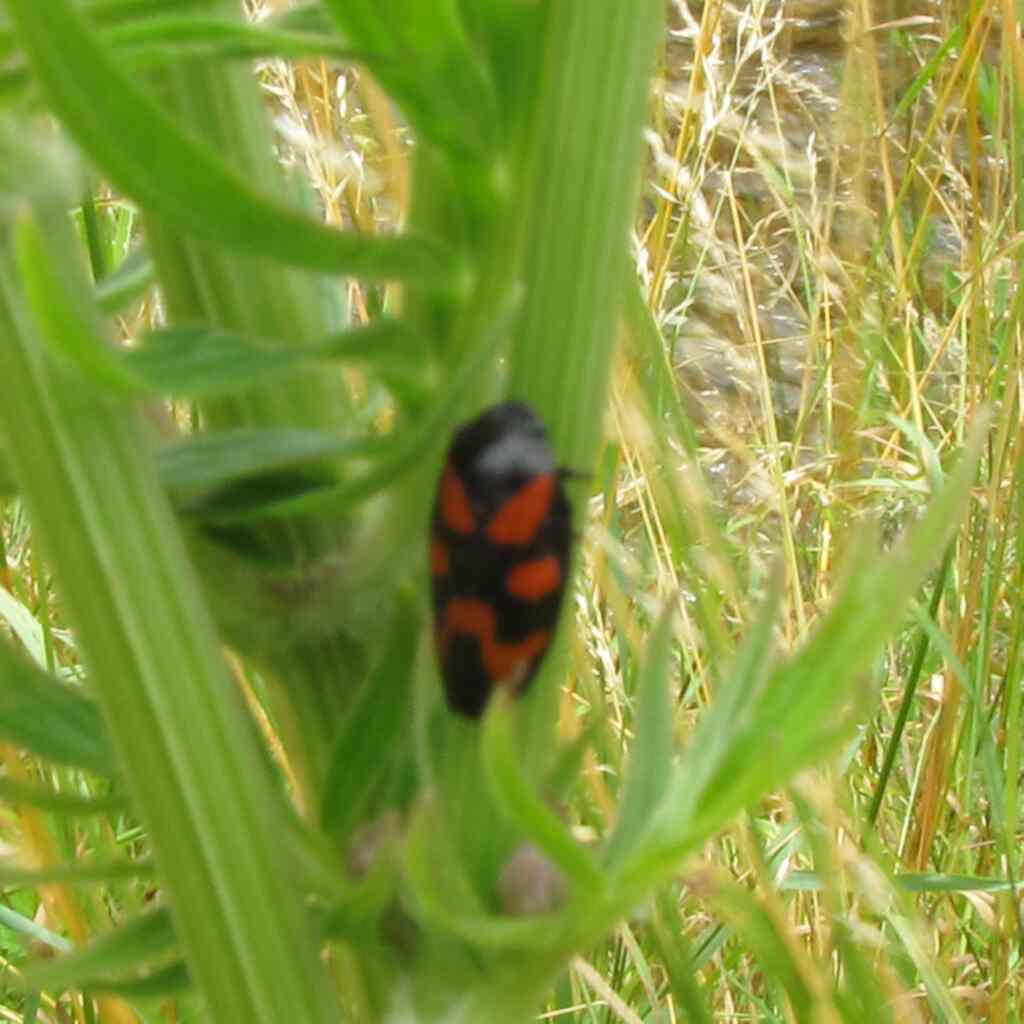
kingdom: Animalia
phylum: Arthropoda
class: Insecta
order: Hemiptera
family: Cercopidae
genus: Cercopis
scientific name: Cercopis vulnerata
